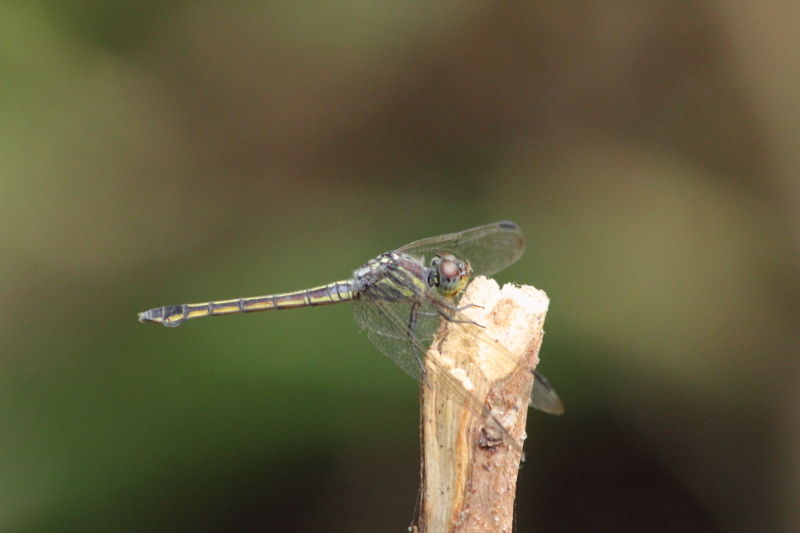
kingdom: Animalia
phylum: Arthropoda
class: Insecta
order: Odonata
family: Libellulidae
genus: Potamarcha
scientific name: Potamarcha congener
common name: Blue chaser
